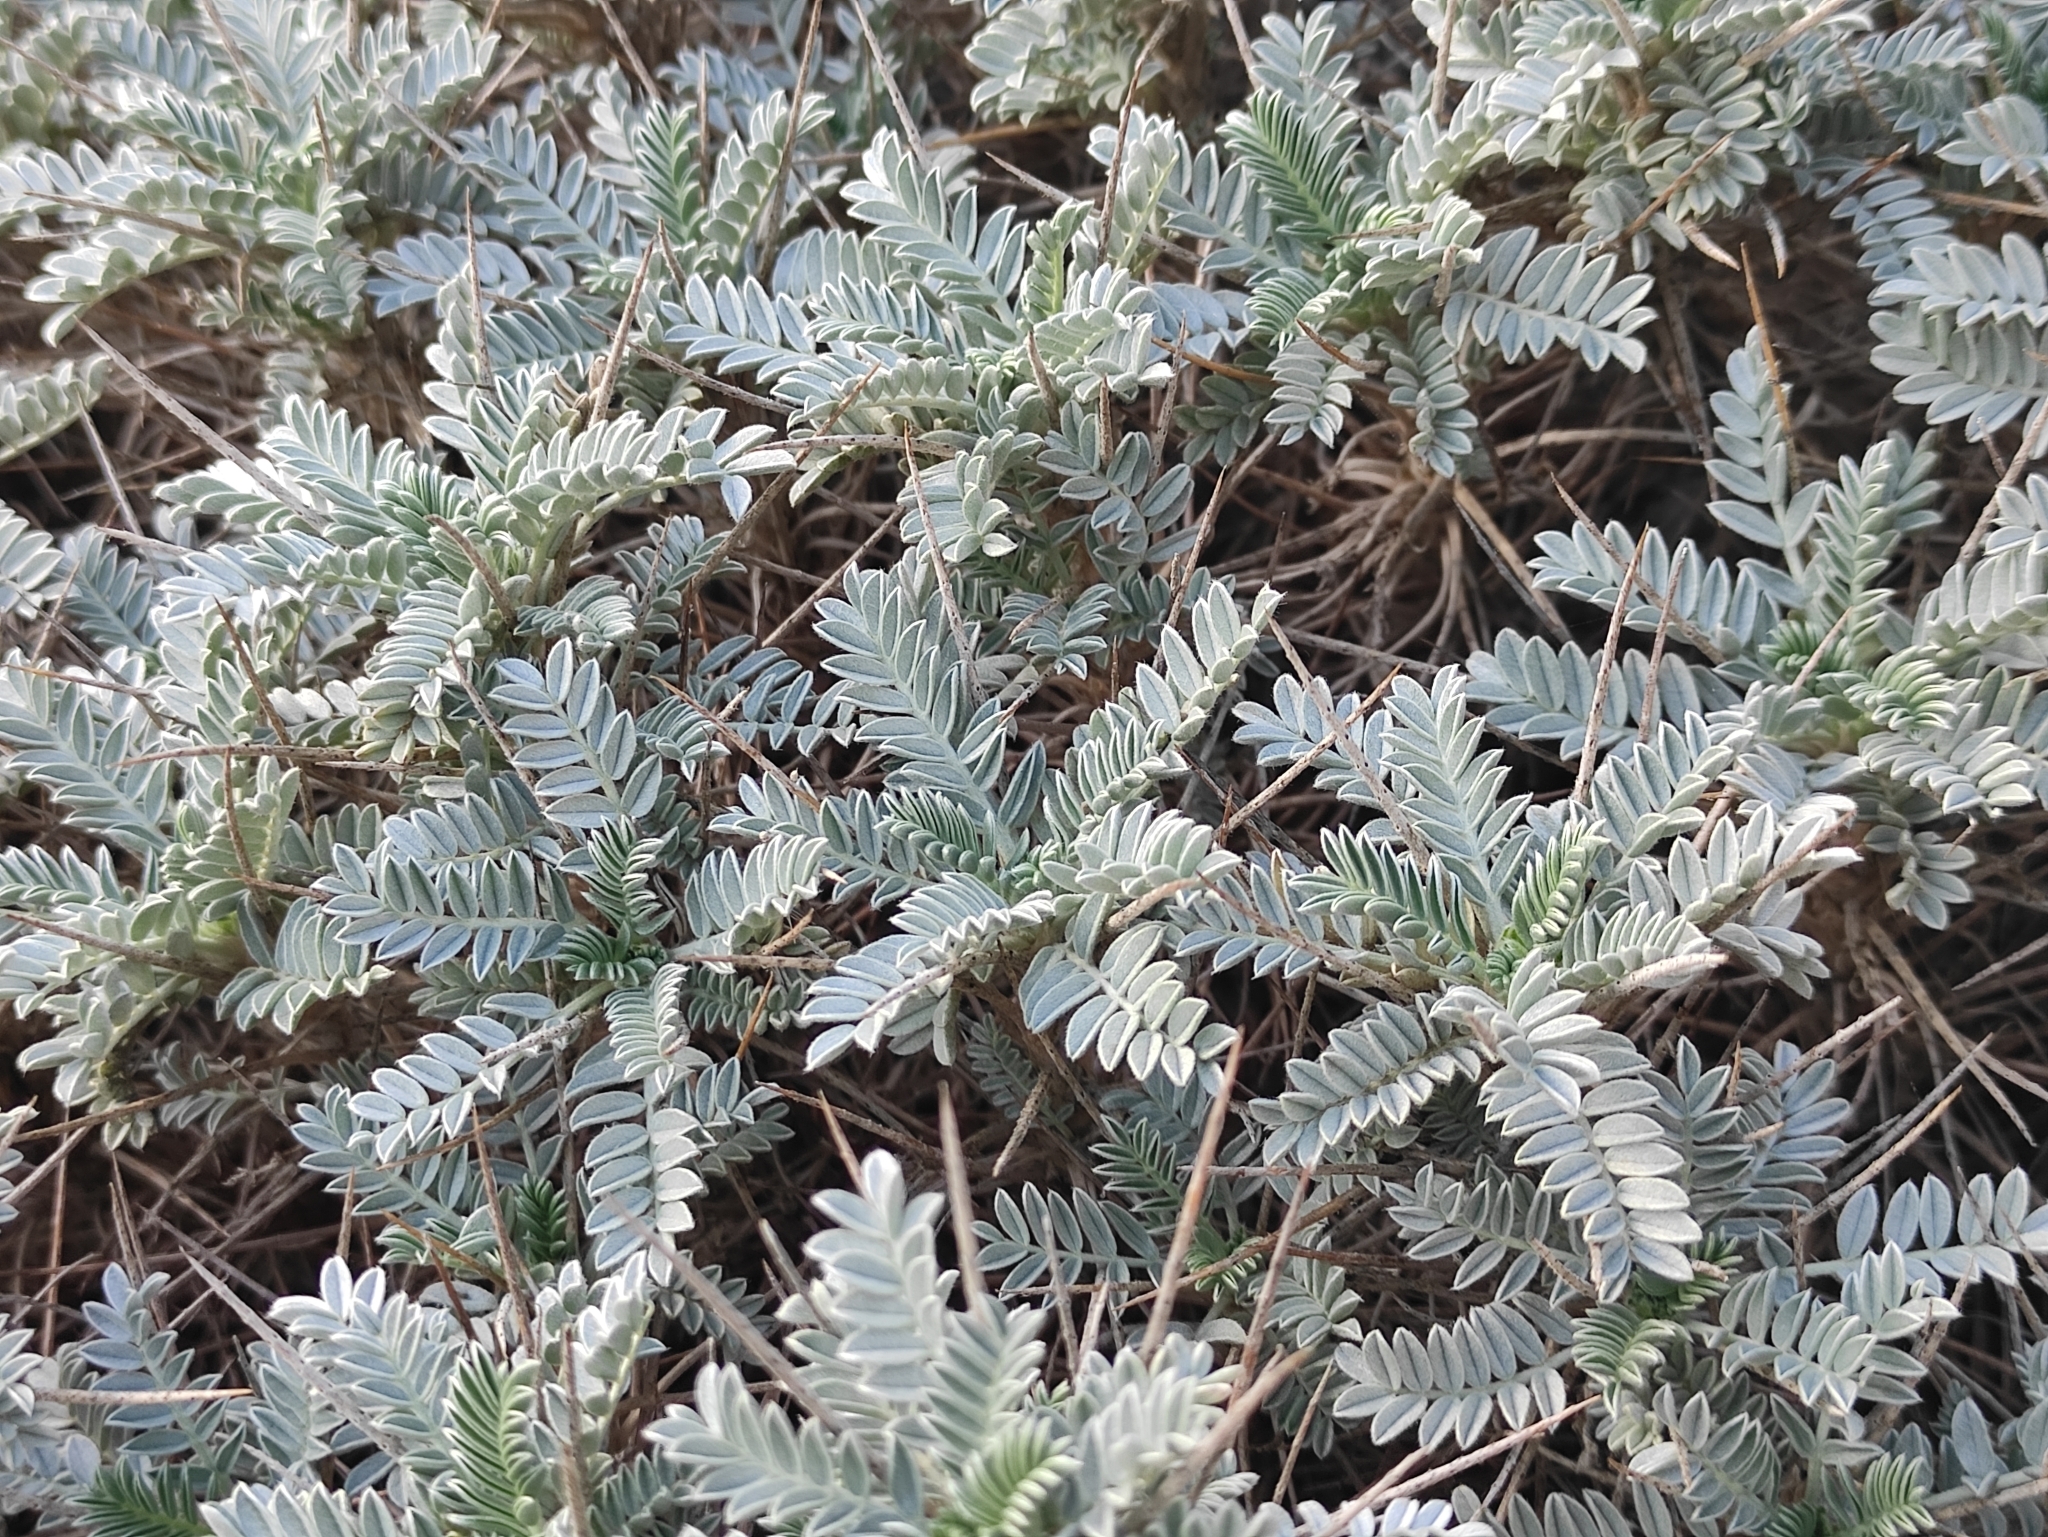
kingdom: Plantae
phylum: Tracheophyta
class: Magnoliopsida
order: Fabales
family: Fabaceae
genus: Astragalus
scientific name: Astragalus tragacantha
